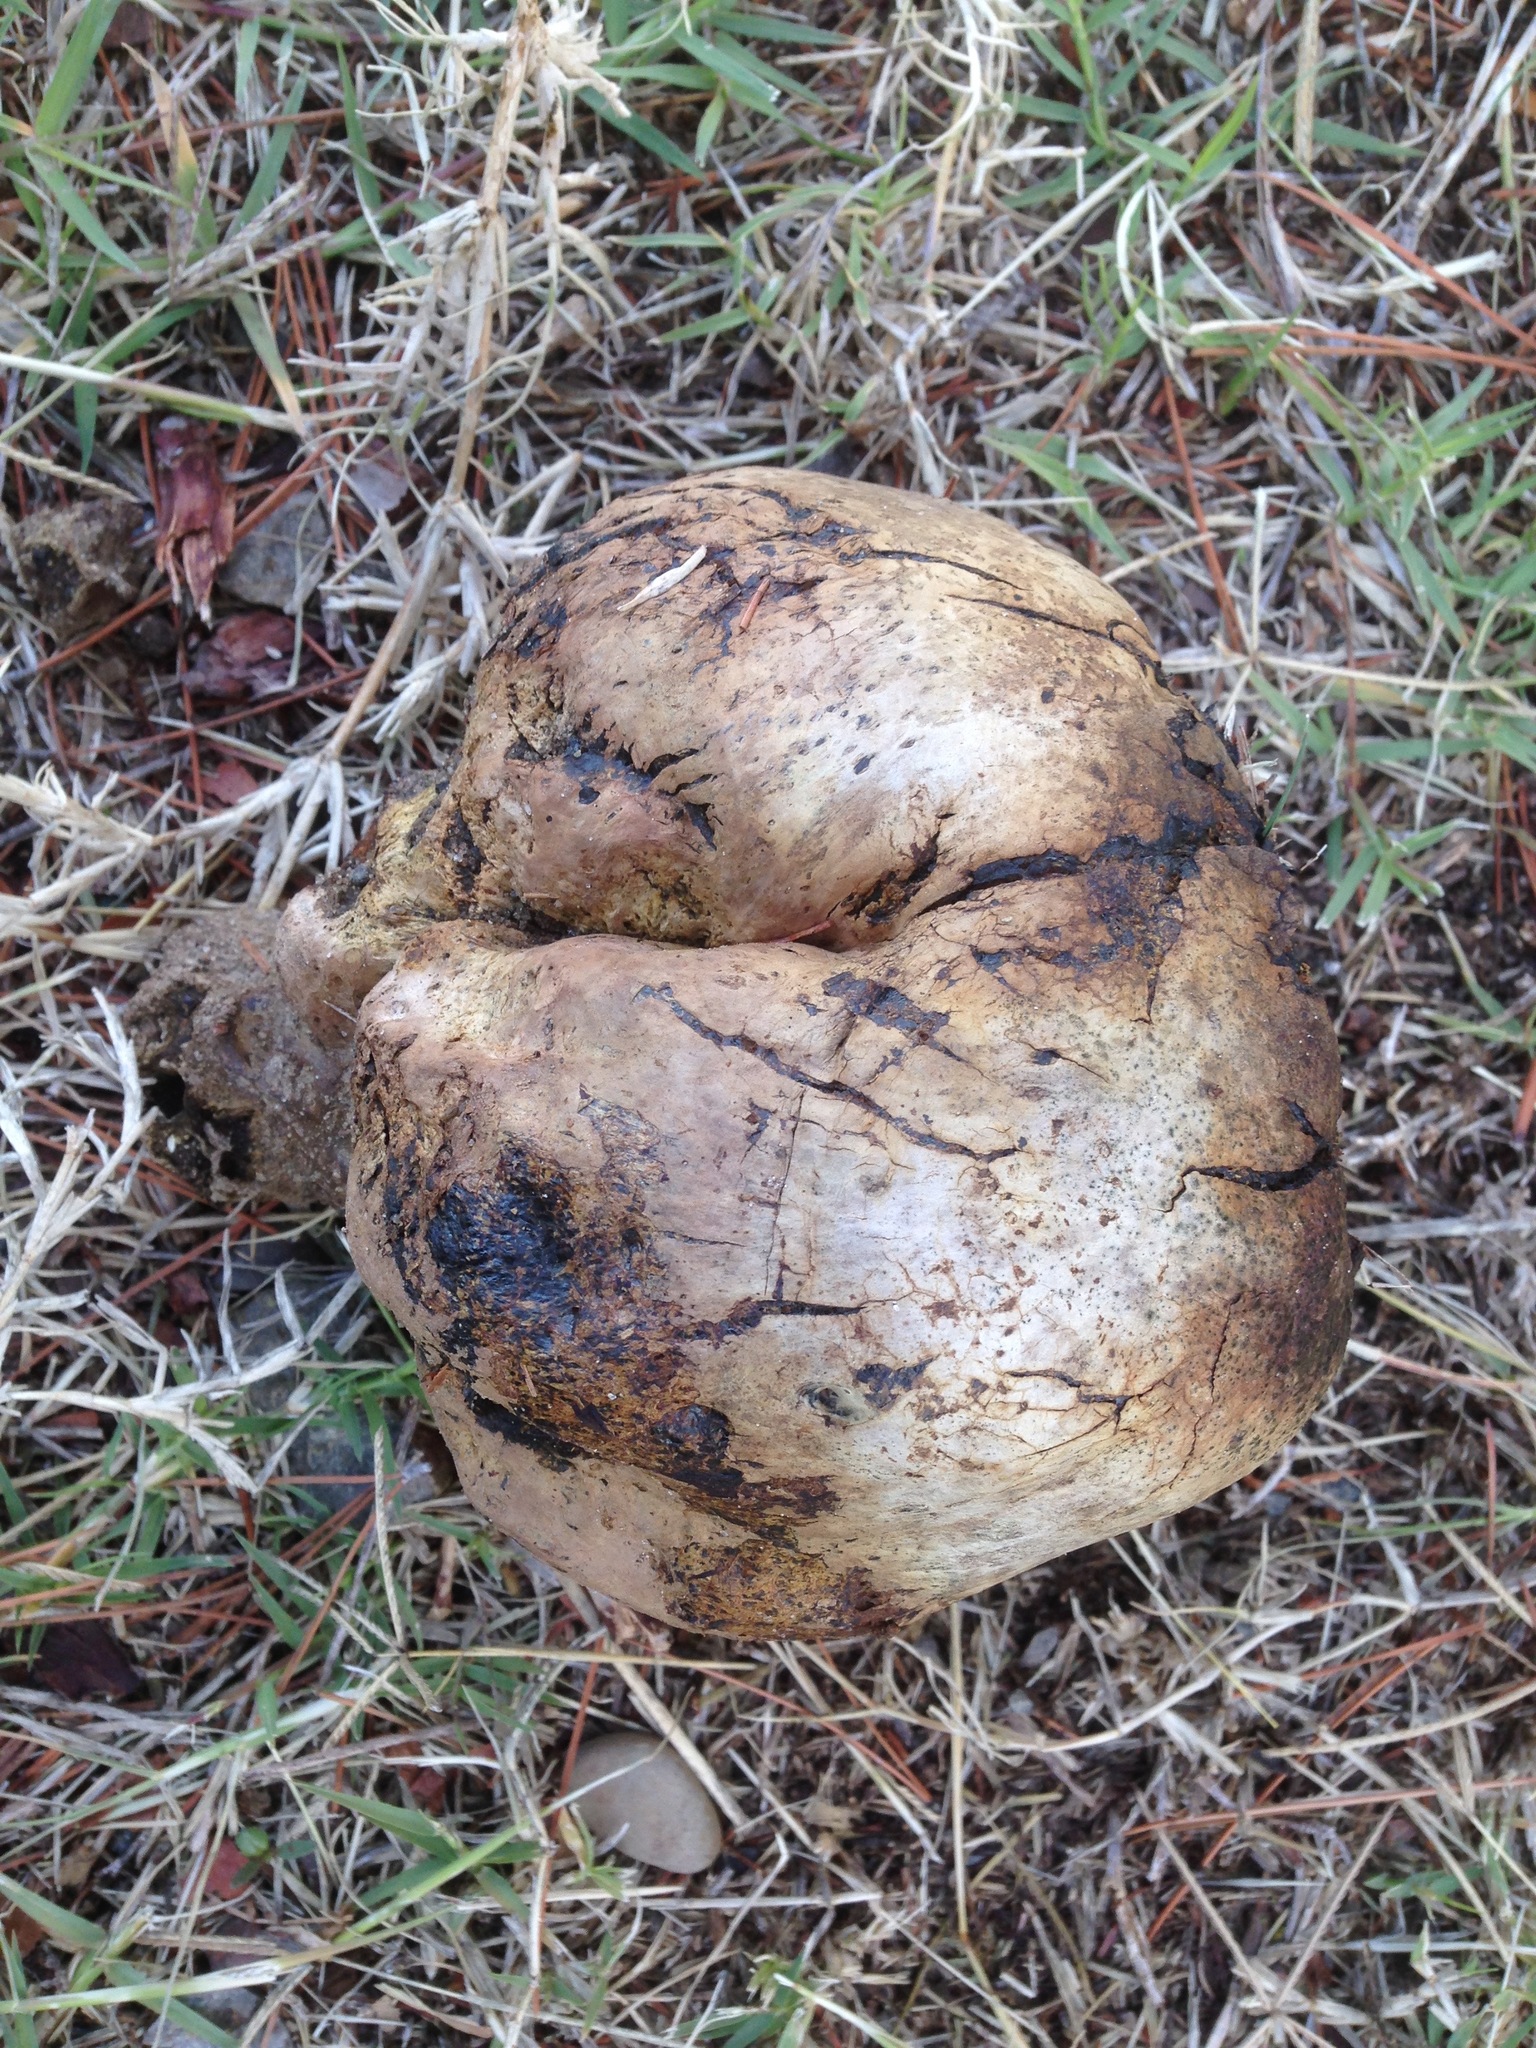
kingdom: Fungi
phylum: Basidiomycota
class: Agaricomycetes
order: Boletales
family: Sclerodermataceae
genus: Pisolithus
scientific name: Pisolithus arhizus
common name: Dyeball
